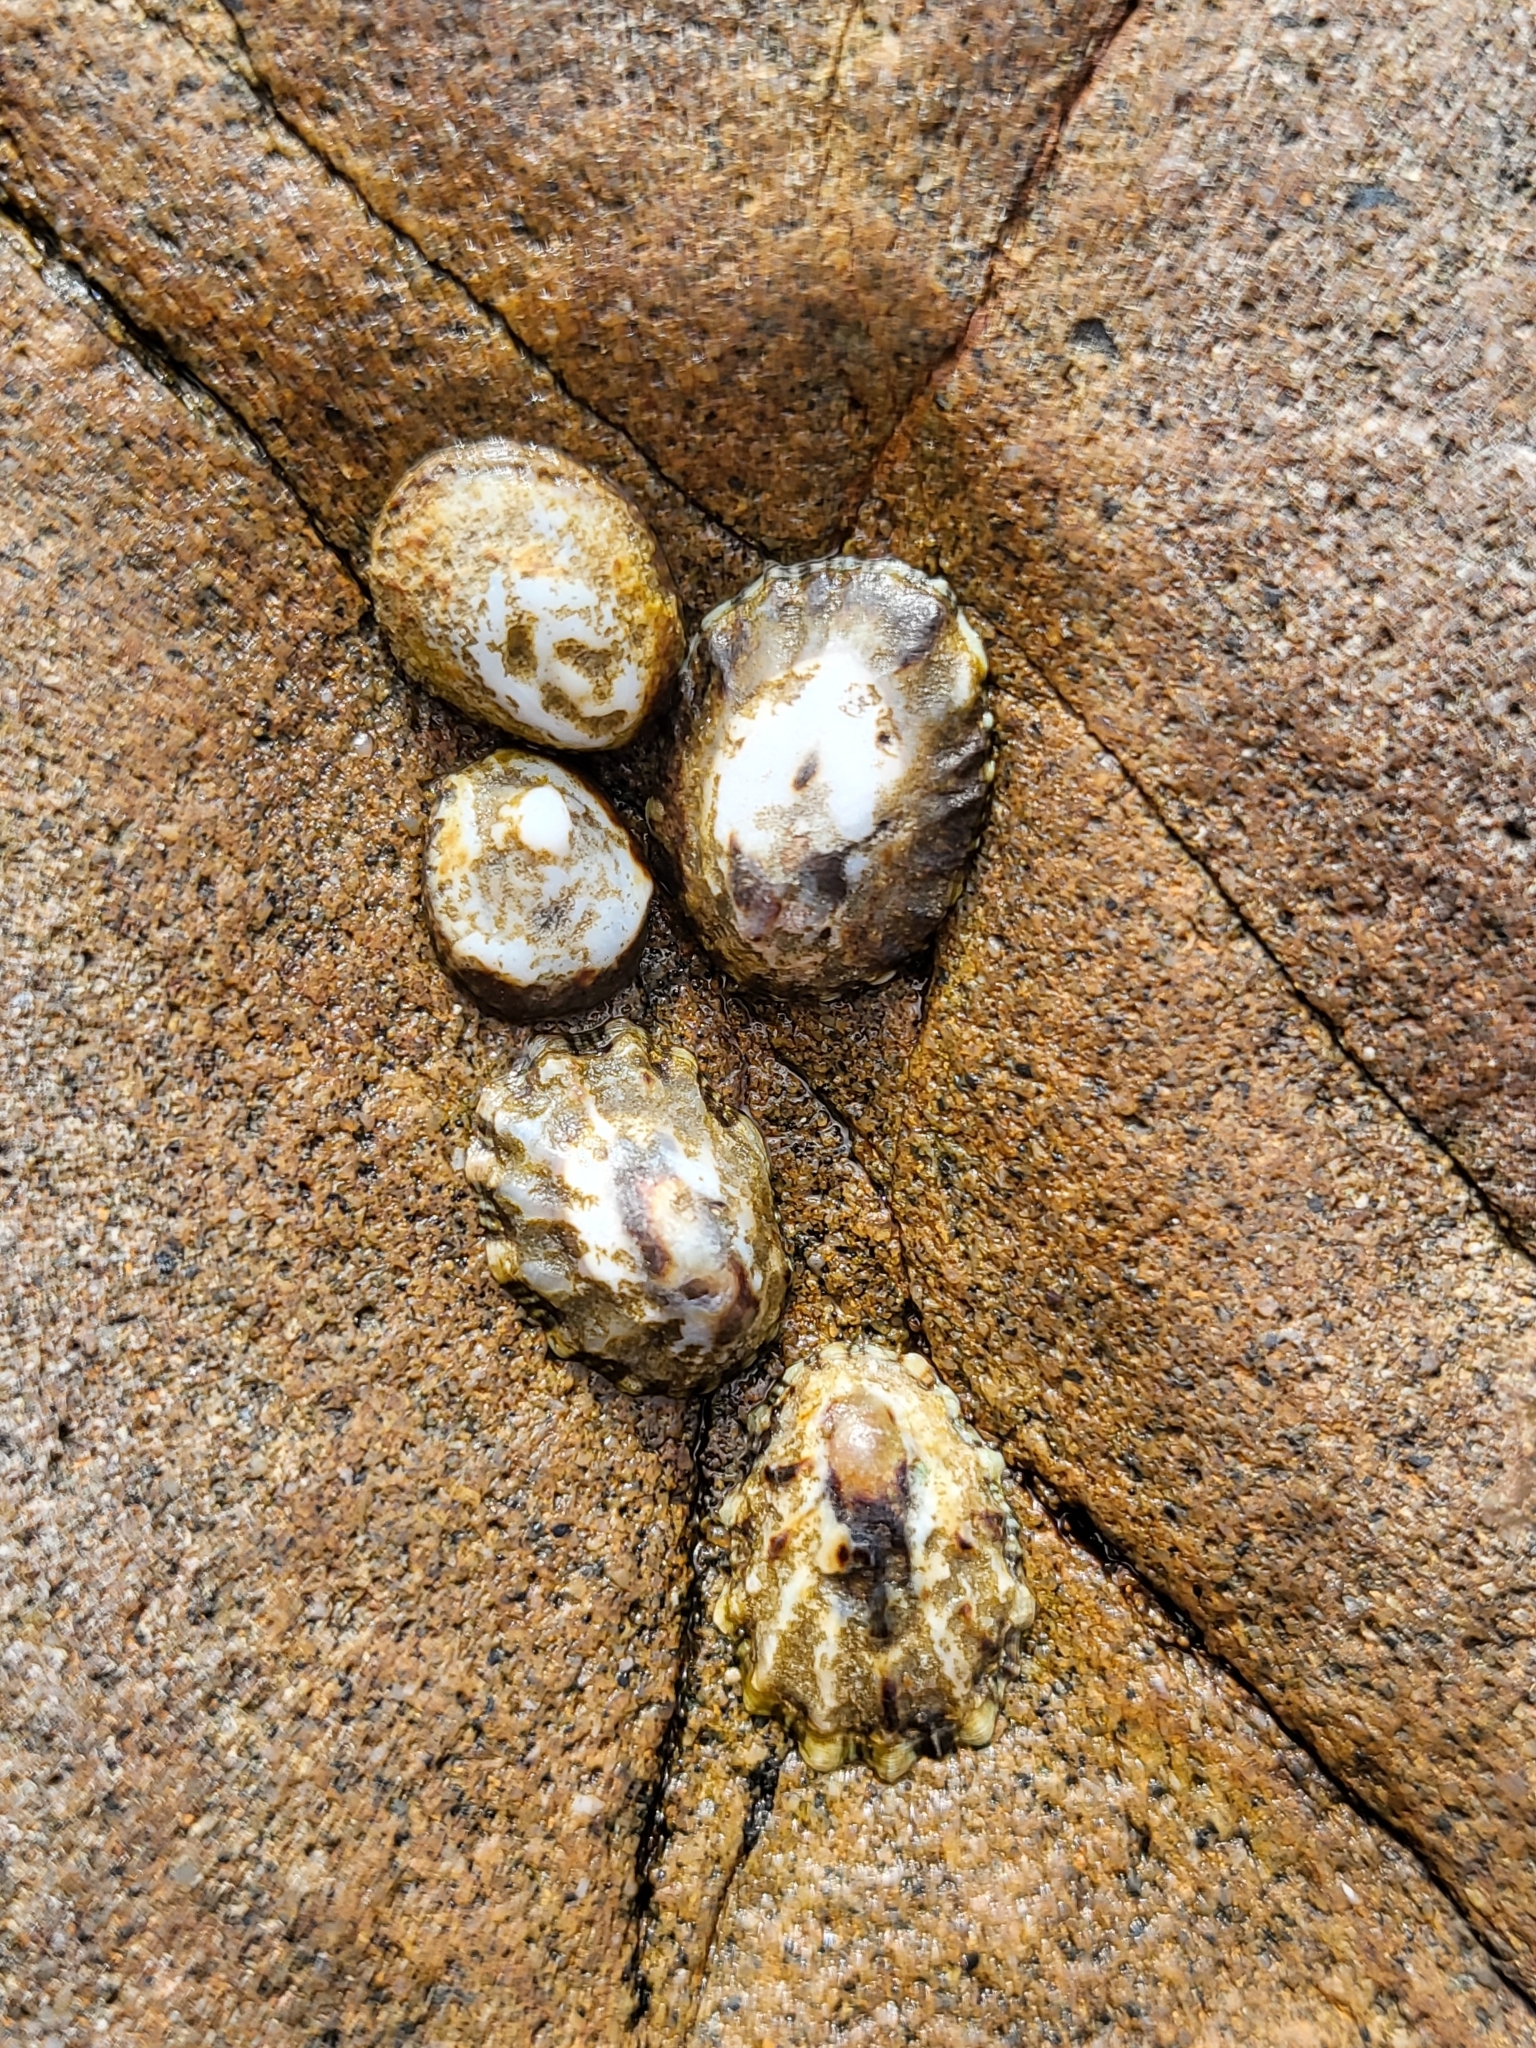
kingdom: Animalia
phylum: Mollusca
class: Gastropoda
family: Lottiidae
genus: Lottia
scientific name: Lottia scabra
